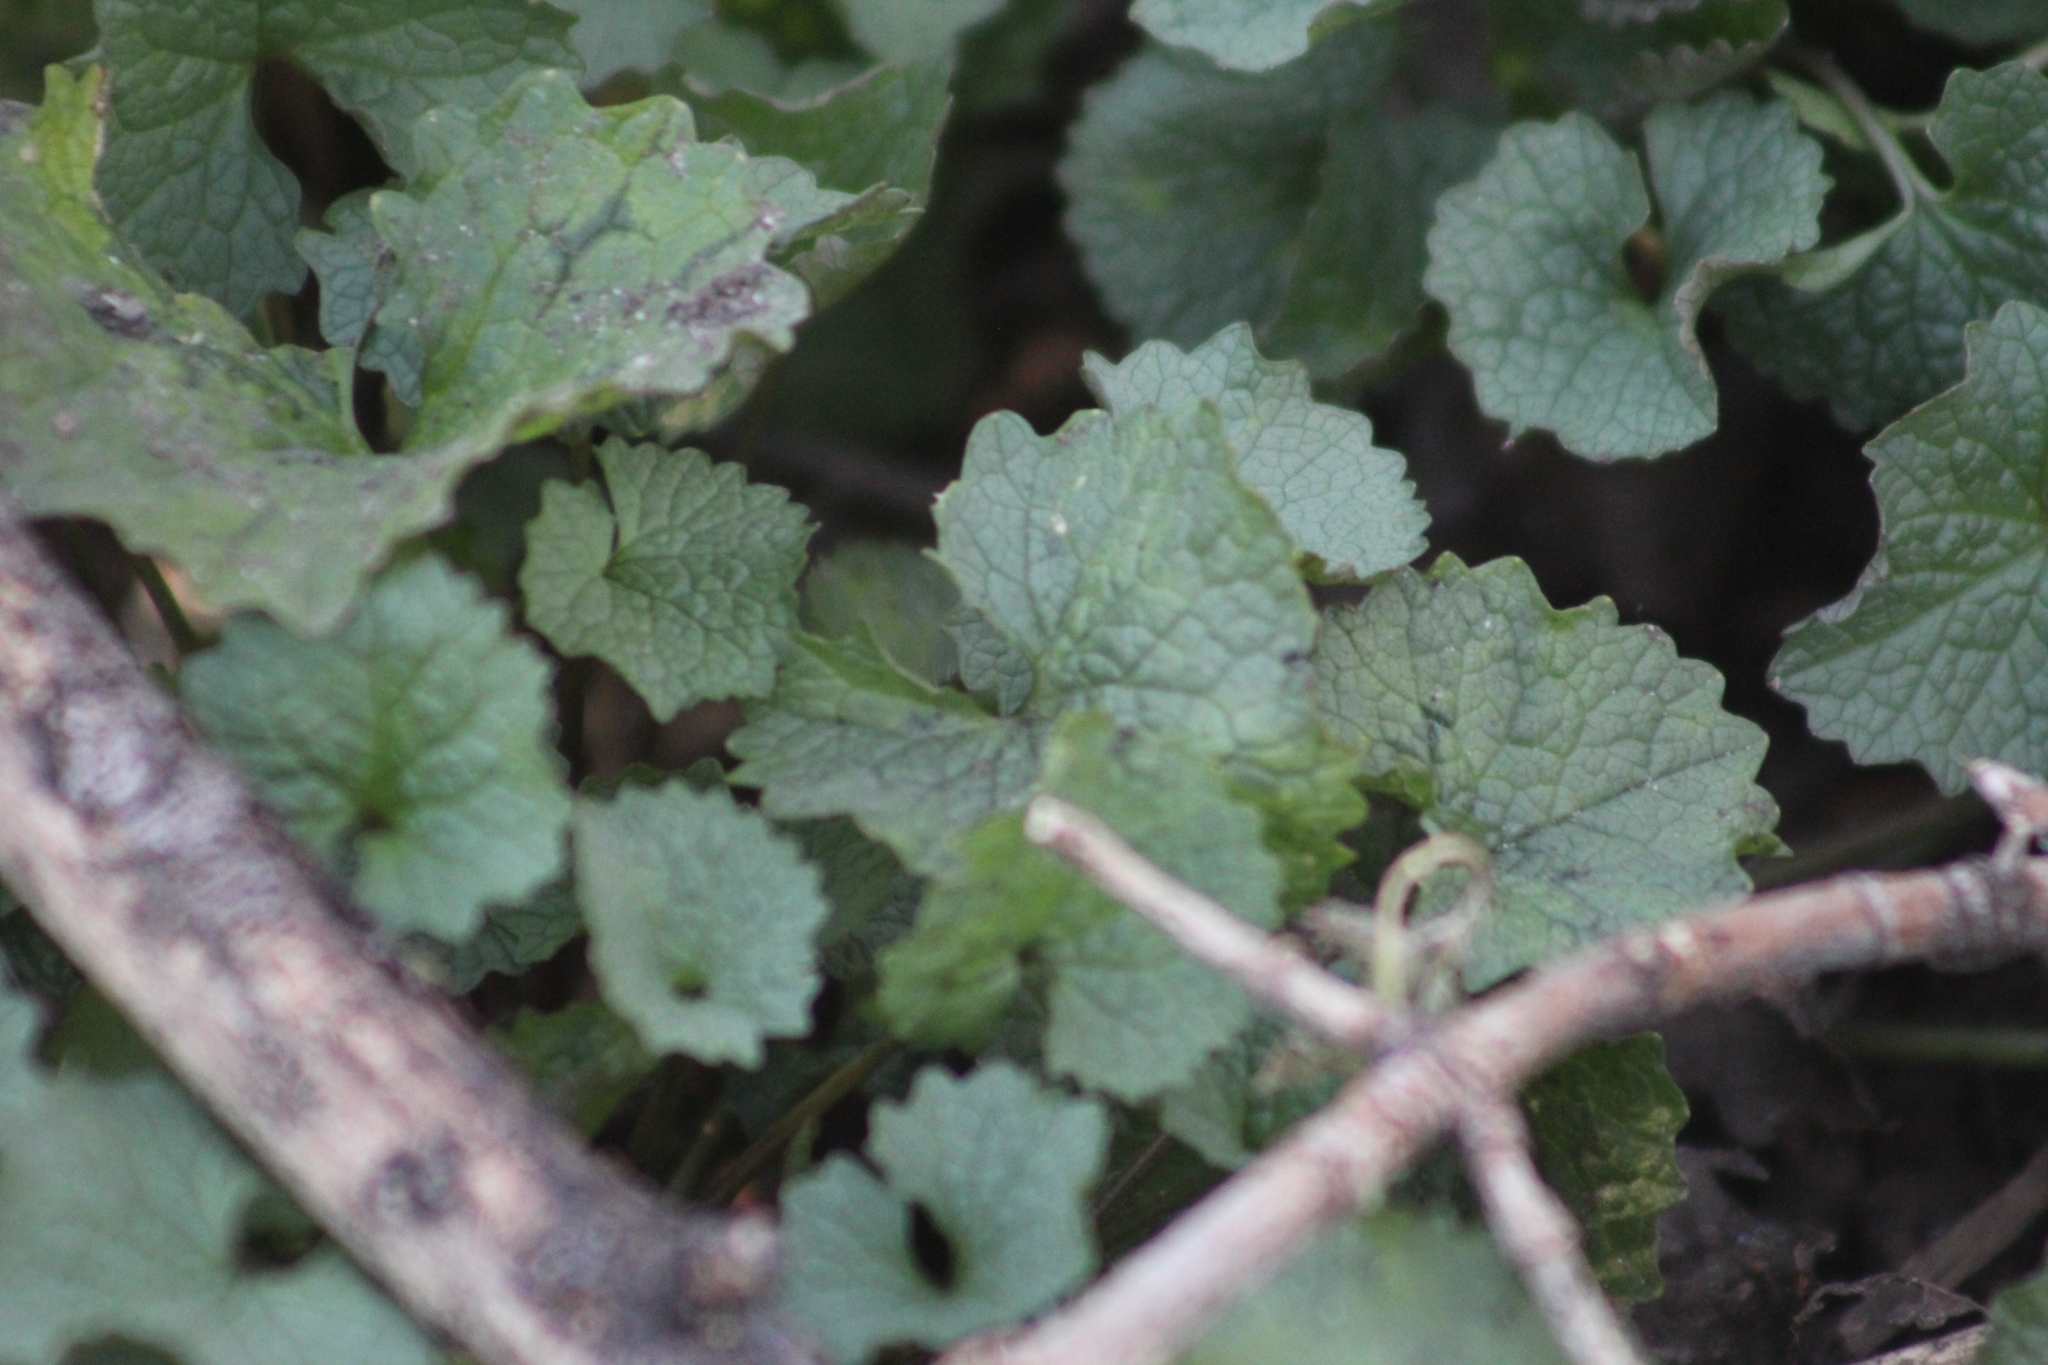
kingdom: Plantae
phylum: Tracheophyta
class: Magnoliopsida
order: Brassicales
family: Brassicaceae
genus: Alliaria
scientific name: Alliaria petiolata
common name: Garlic mustard
